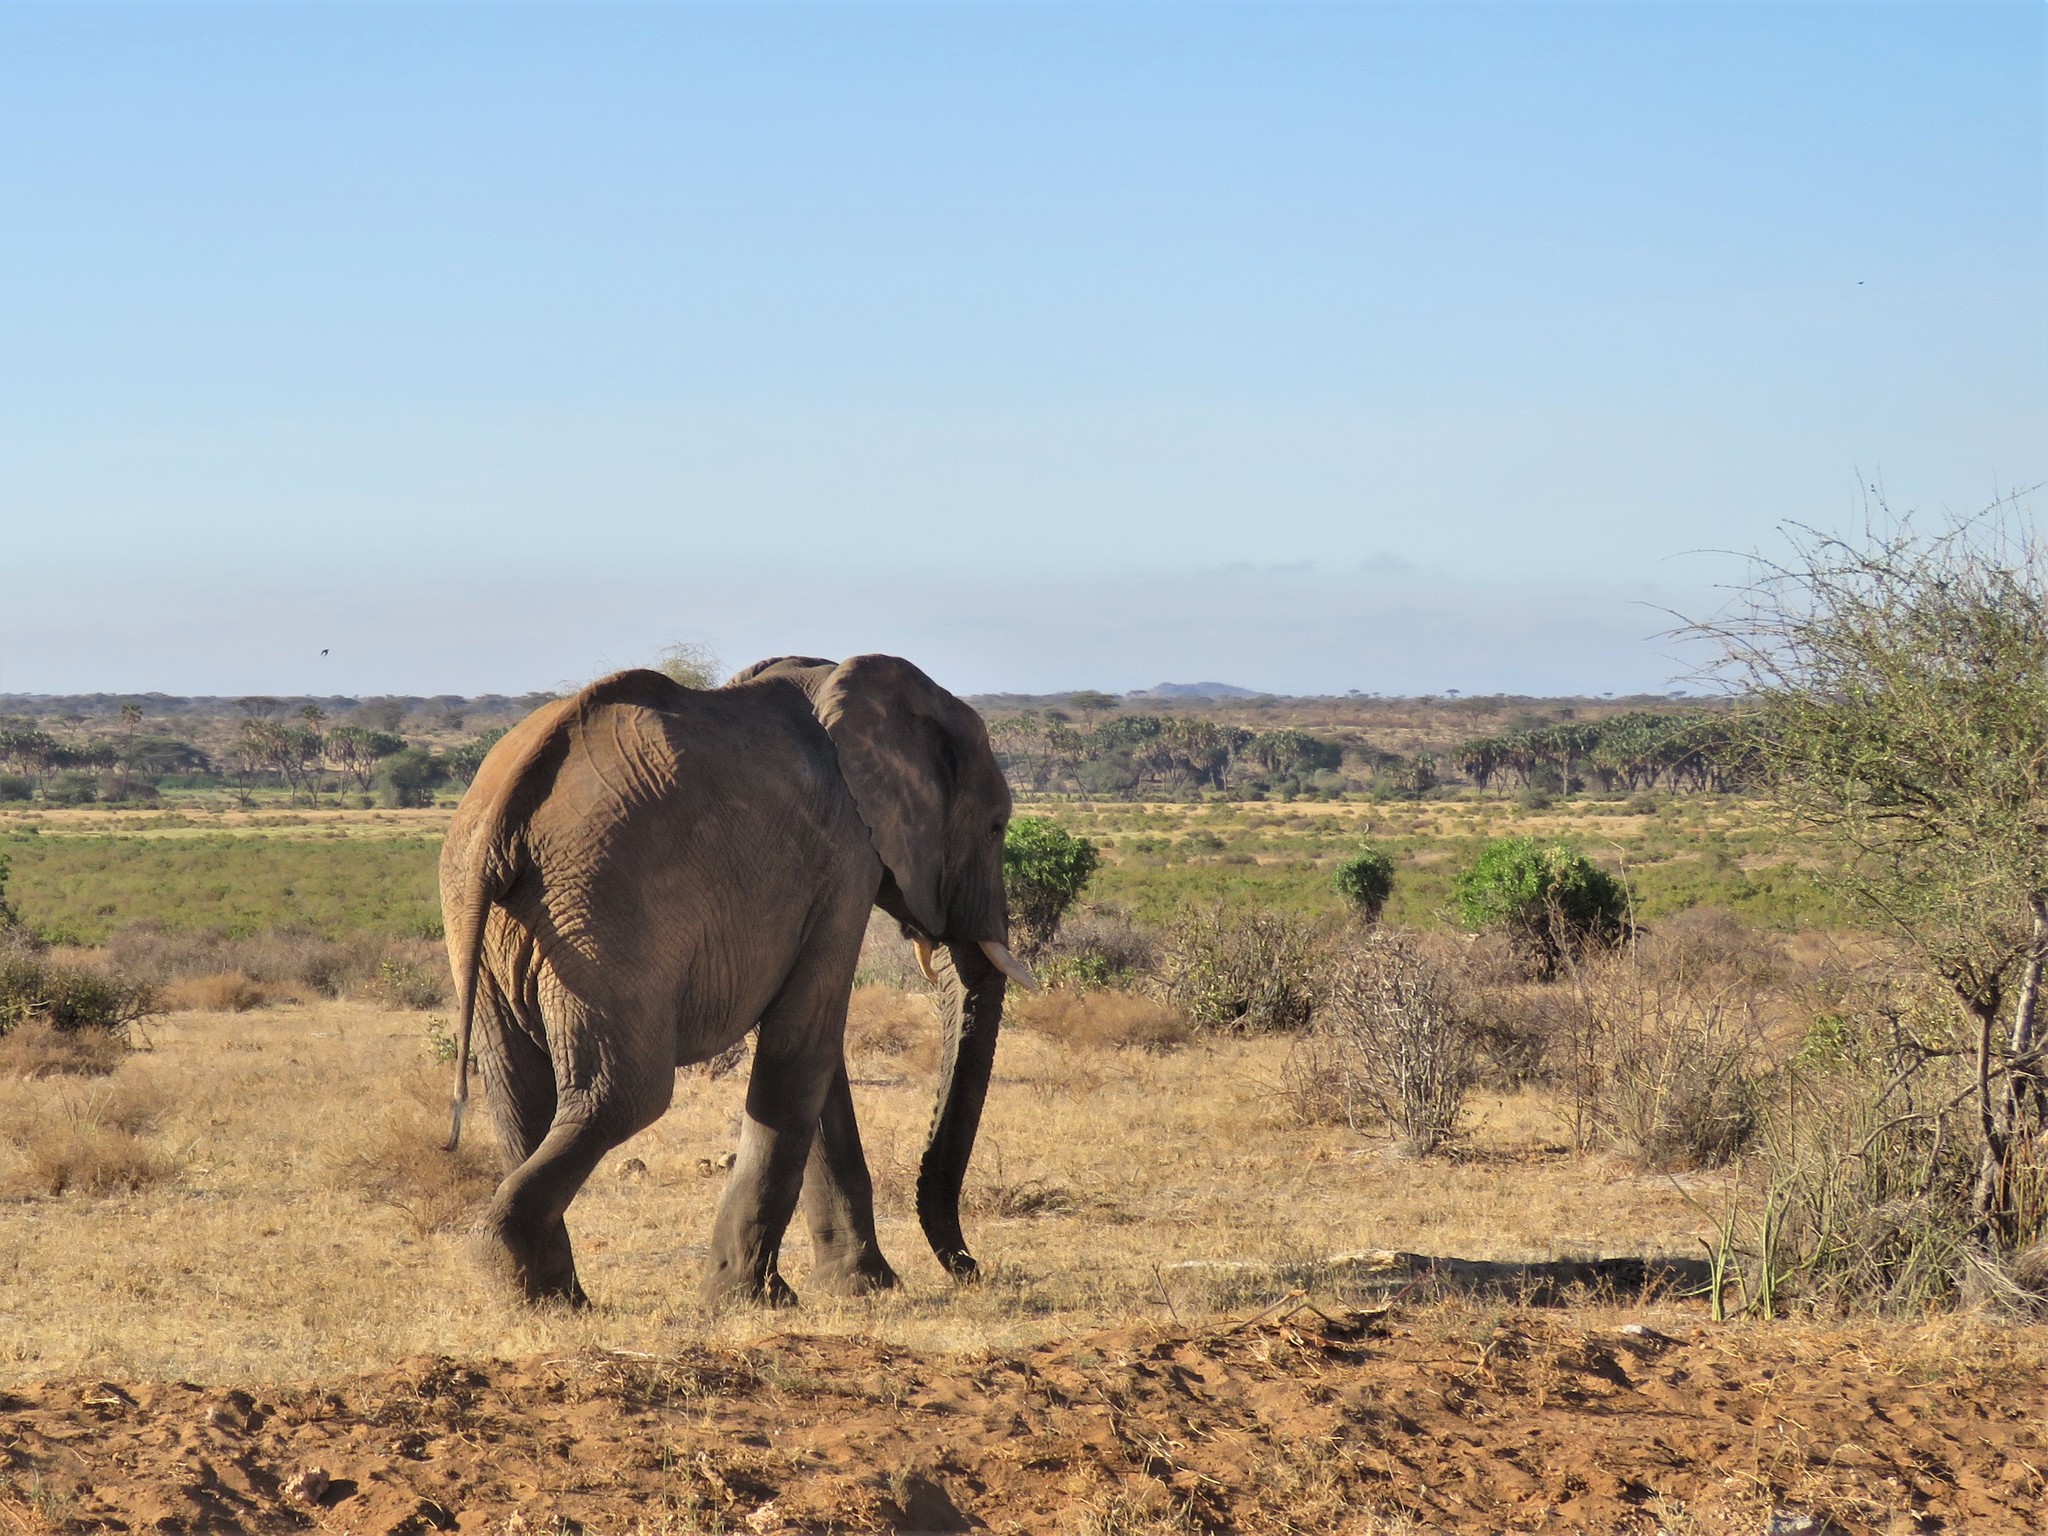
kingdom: Animalia
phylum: Chordata
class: Mammalia
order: Proboscidea
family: Elephantidae
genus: Loxodonta
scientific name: Loxodonta africana
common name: African elephant
